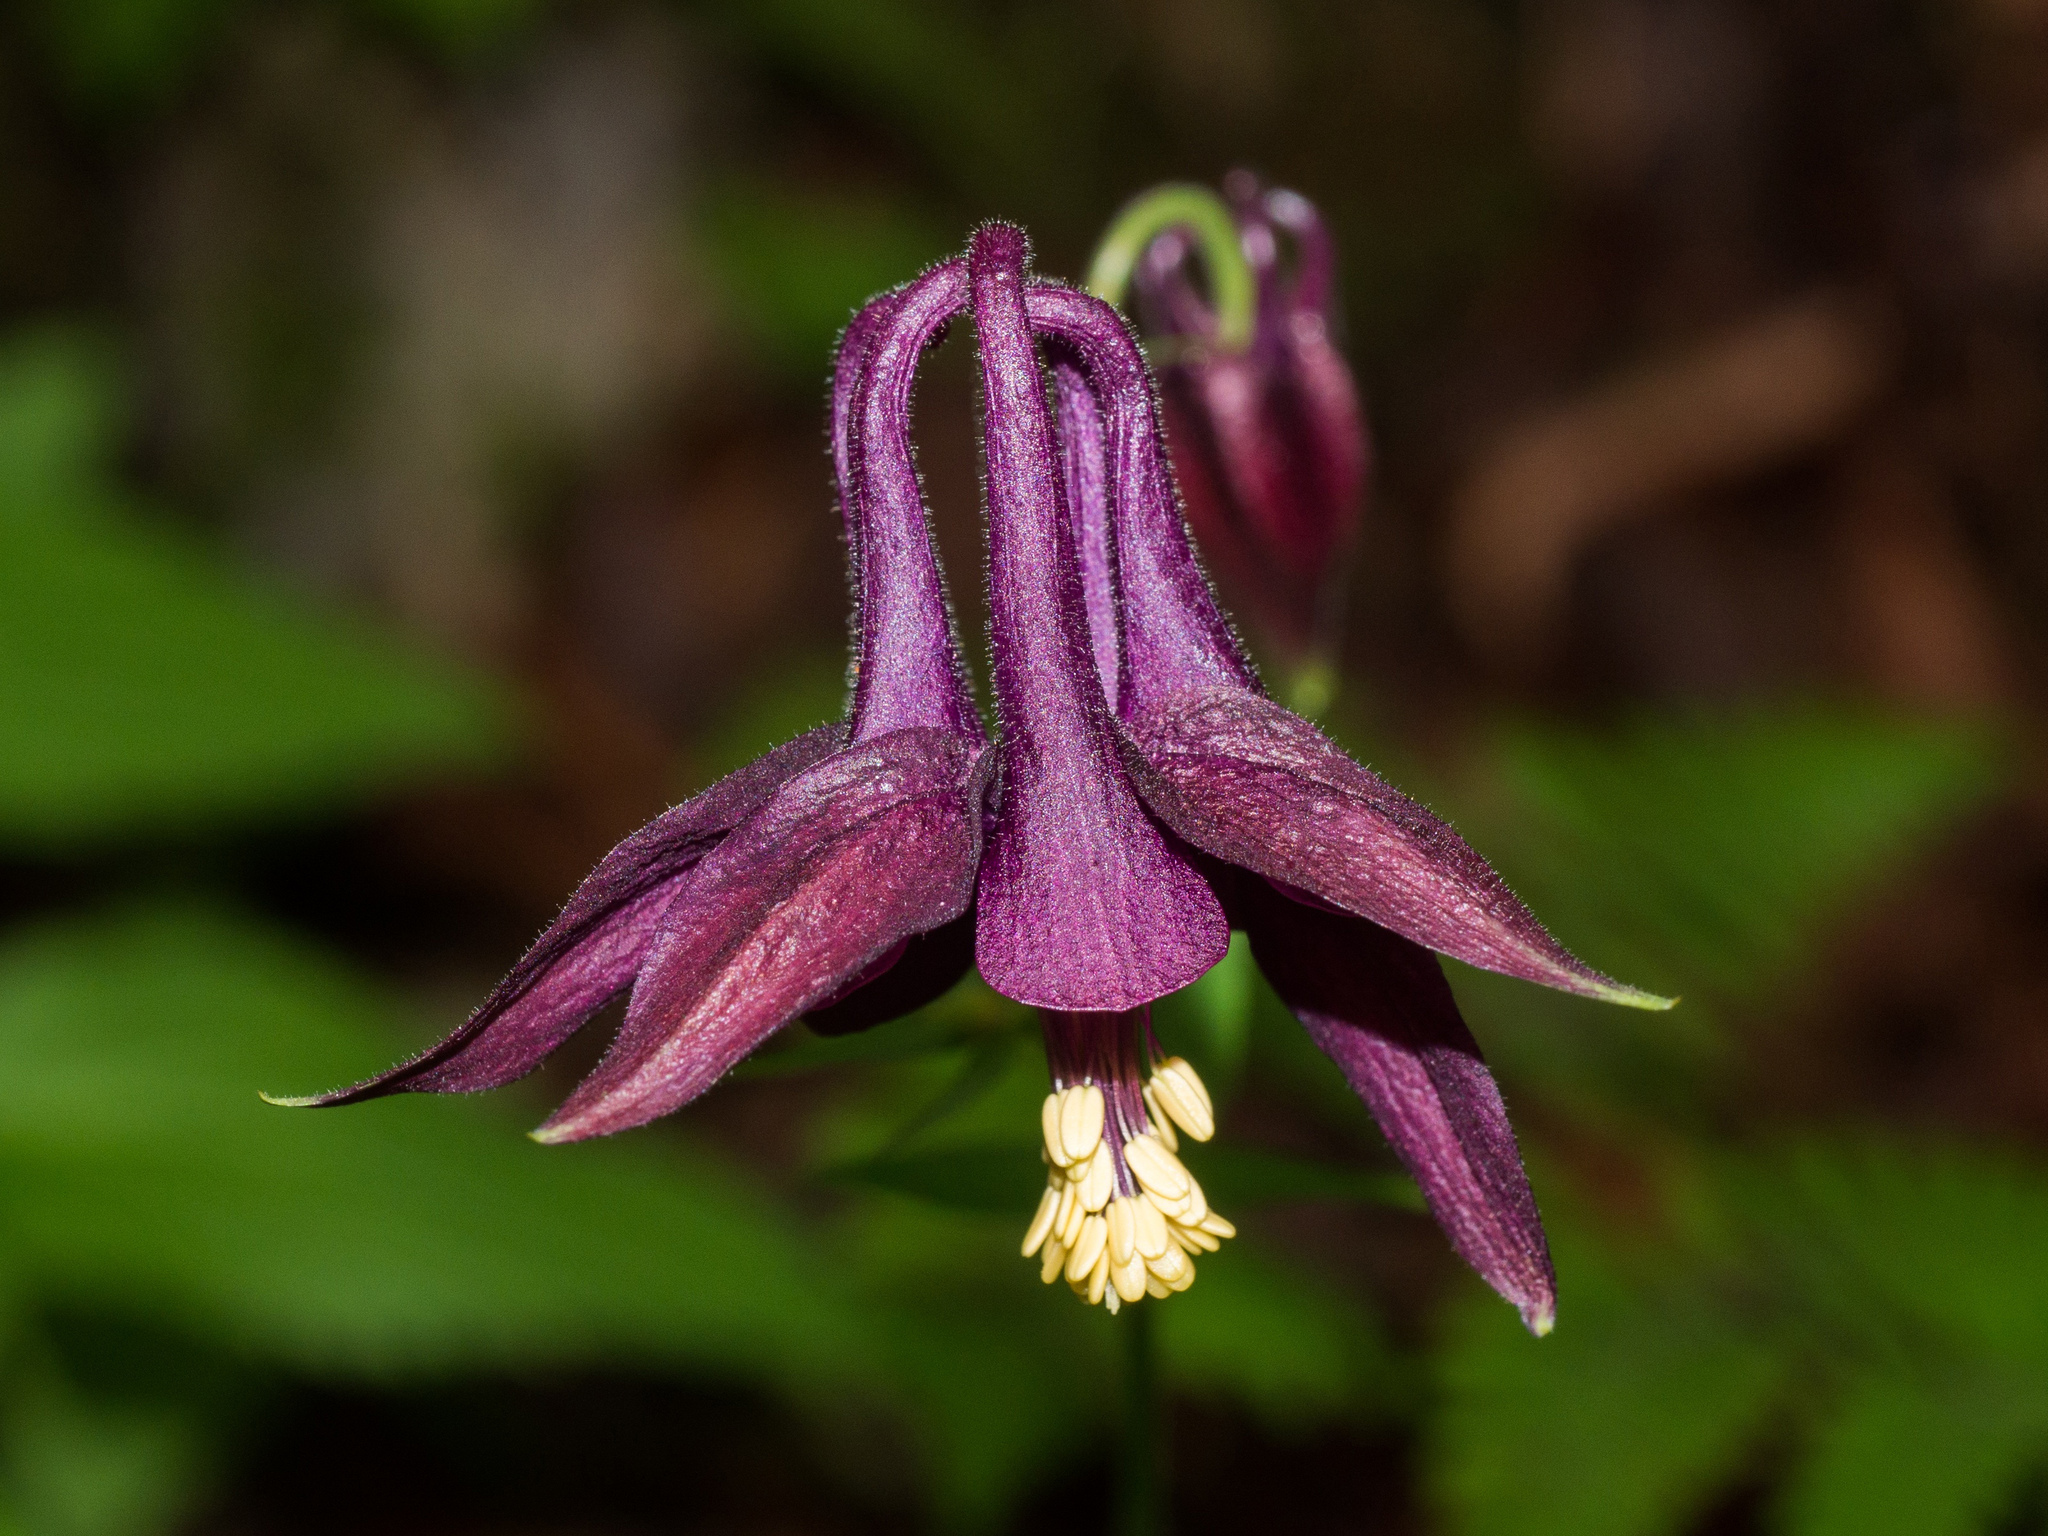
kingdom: Plantae
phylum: Tracheophyta
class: Magnoliopsida
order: Ranunculales
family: Ranunculaceae
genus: Aquilegia
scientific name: Aquilegia atrata
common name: Dark columbine
